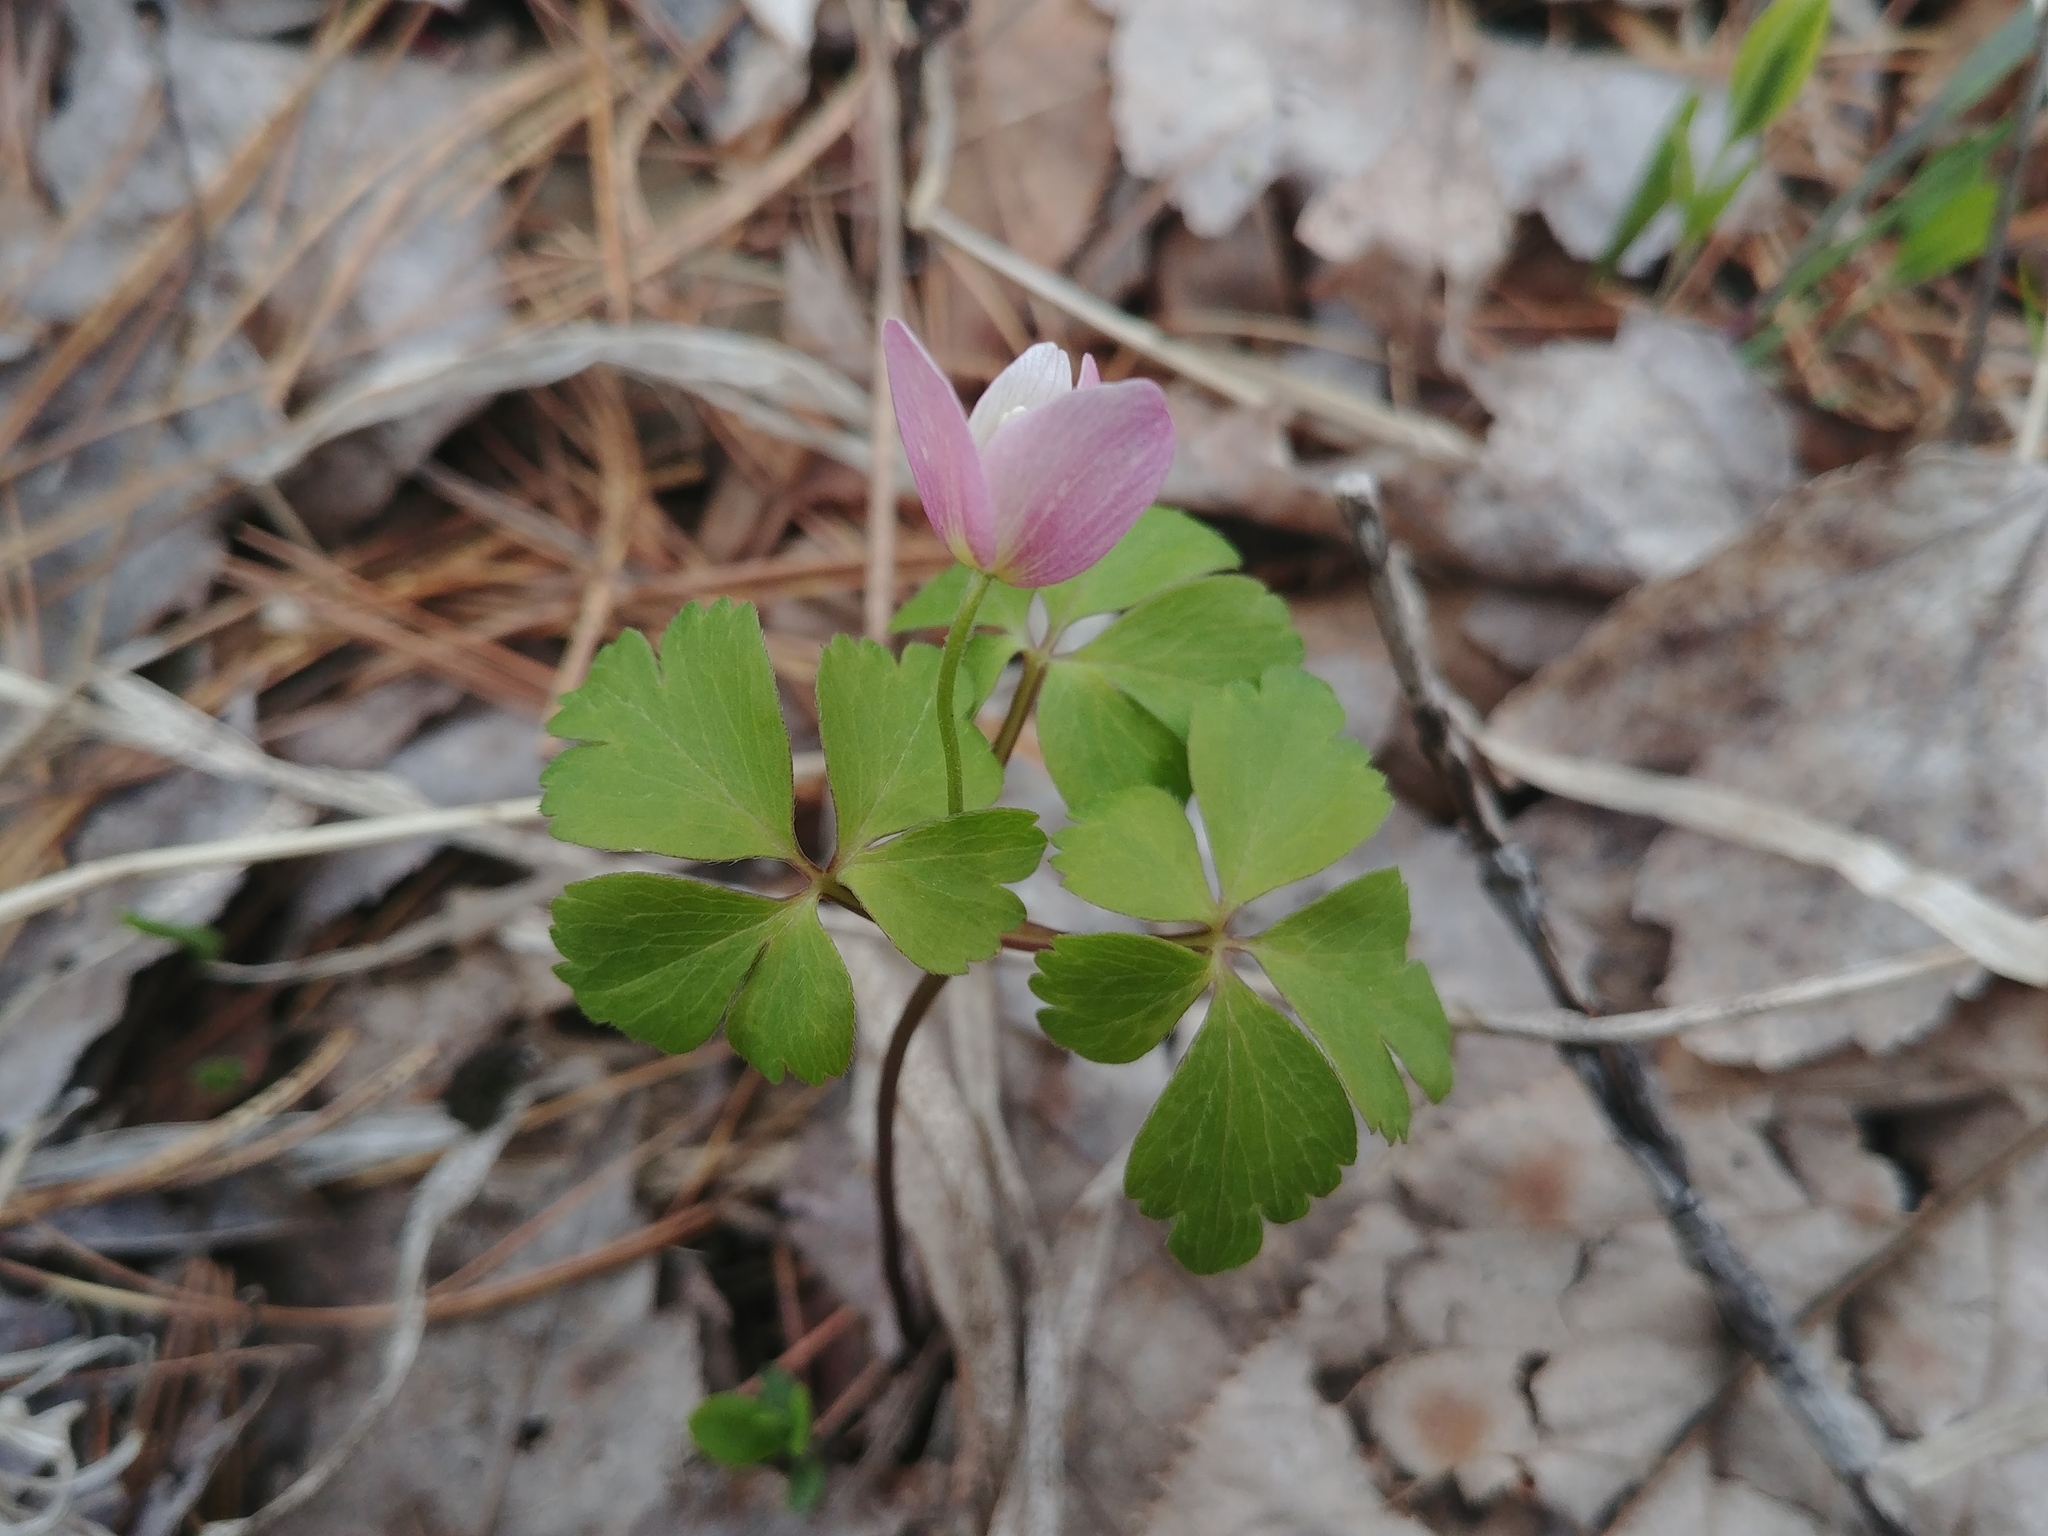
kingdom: Plantae
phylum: Tracheophyta
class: Magnoliopsida
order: Ranunculales
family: Ranunculaceae
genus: Anemone
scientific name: Anemone quinquefolia
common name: Wood anemone
